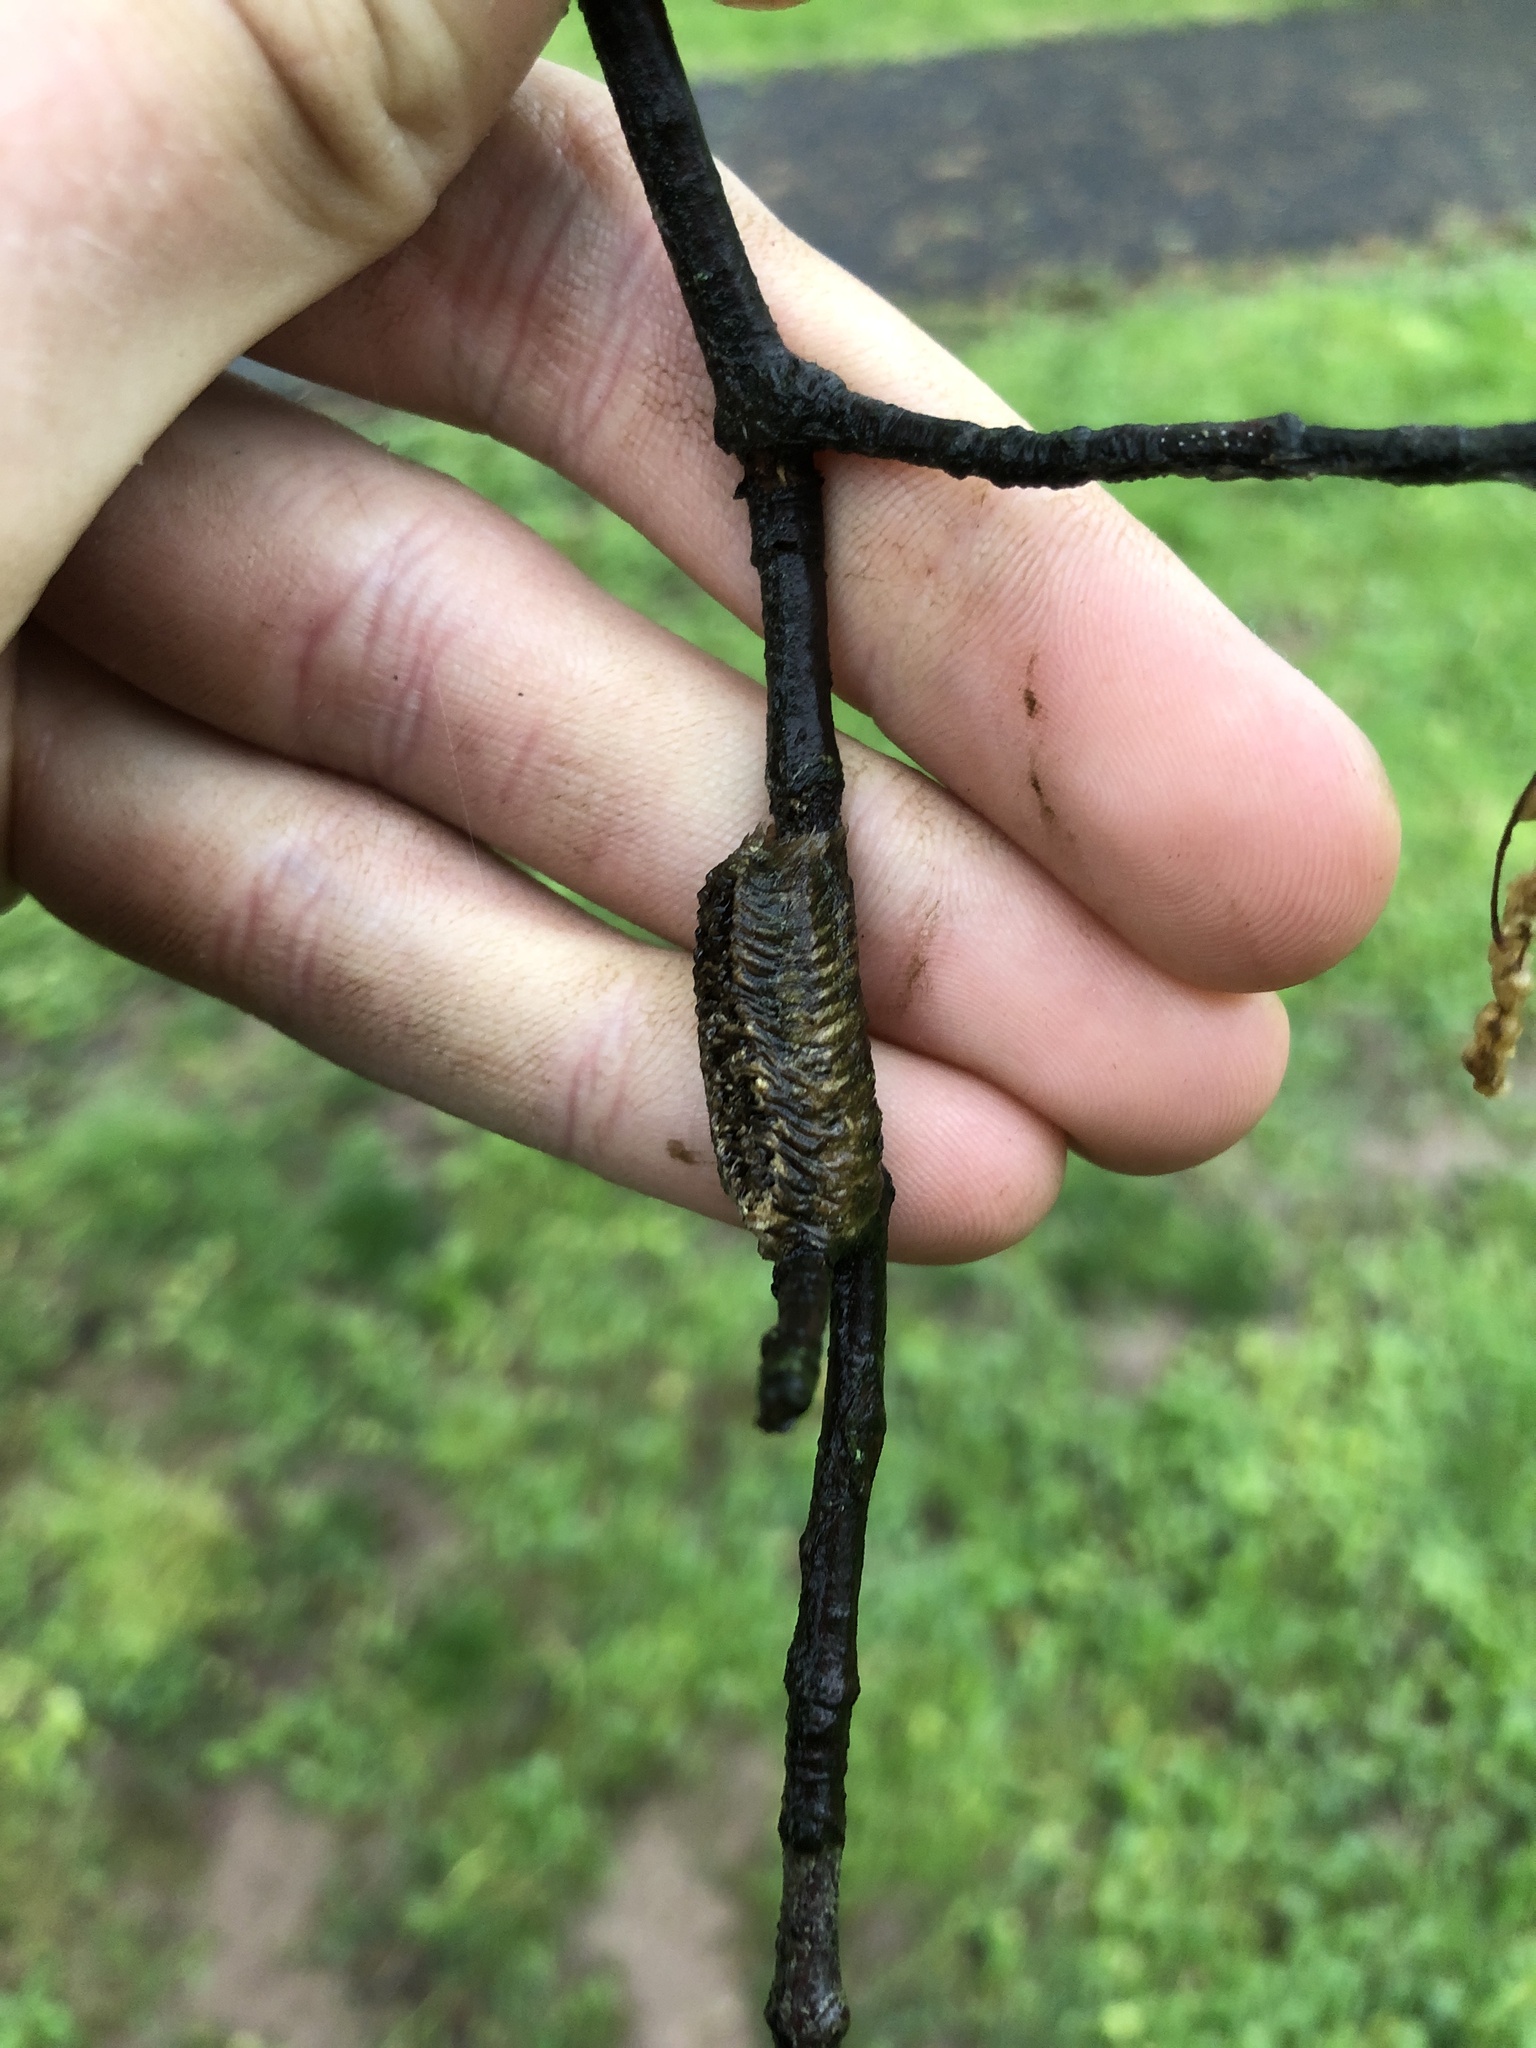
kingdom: Animalia
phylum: Arthropoda
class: Insecta
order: Mantodea
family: Mantidae
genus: Stagmomantis
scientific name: Stagmomantis carolina
